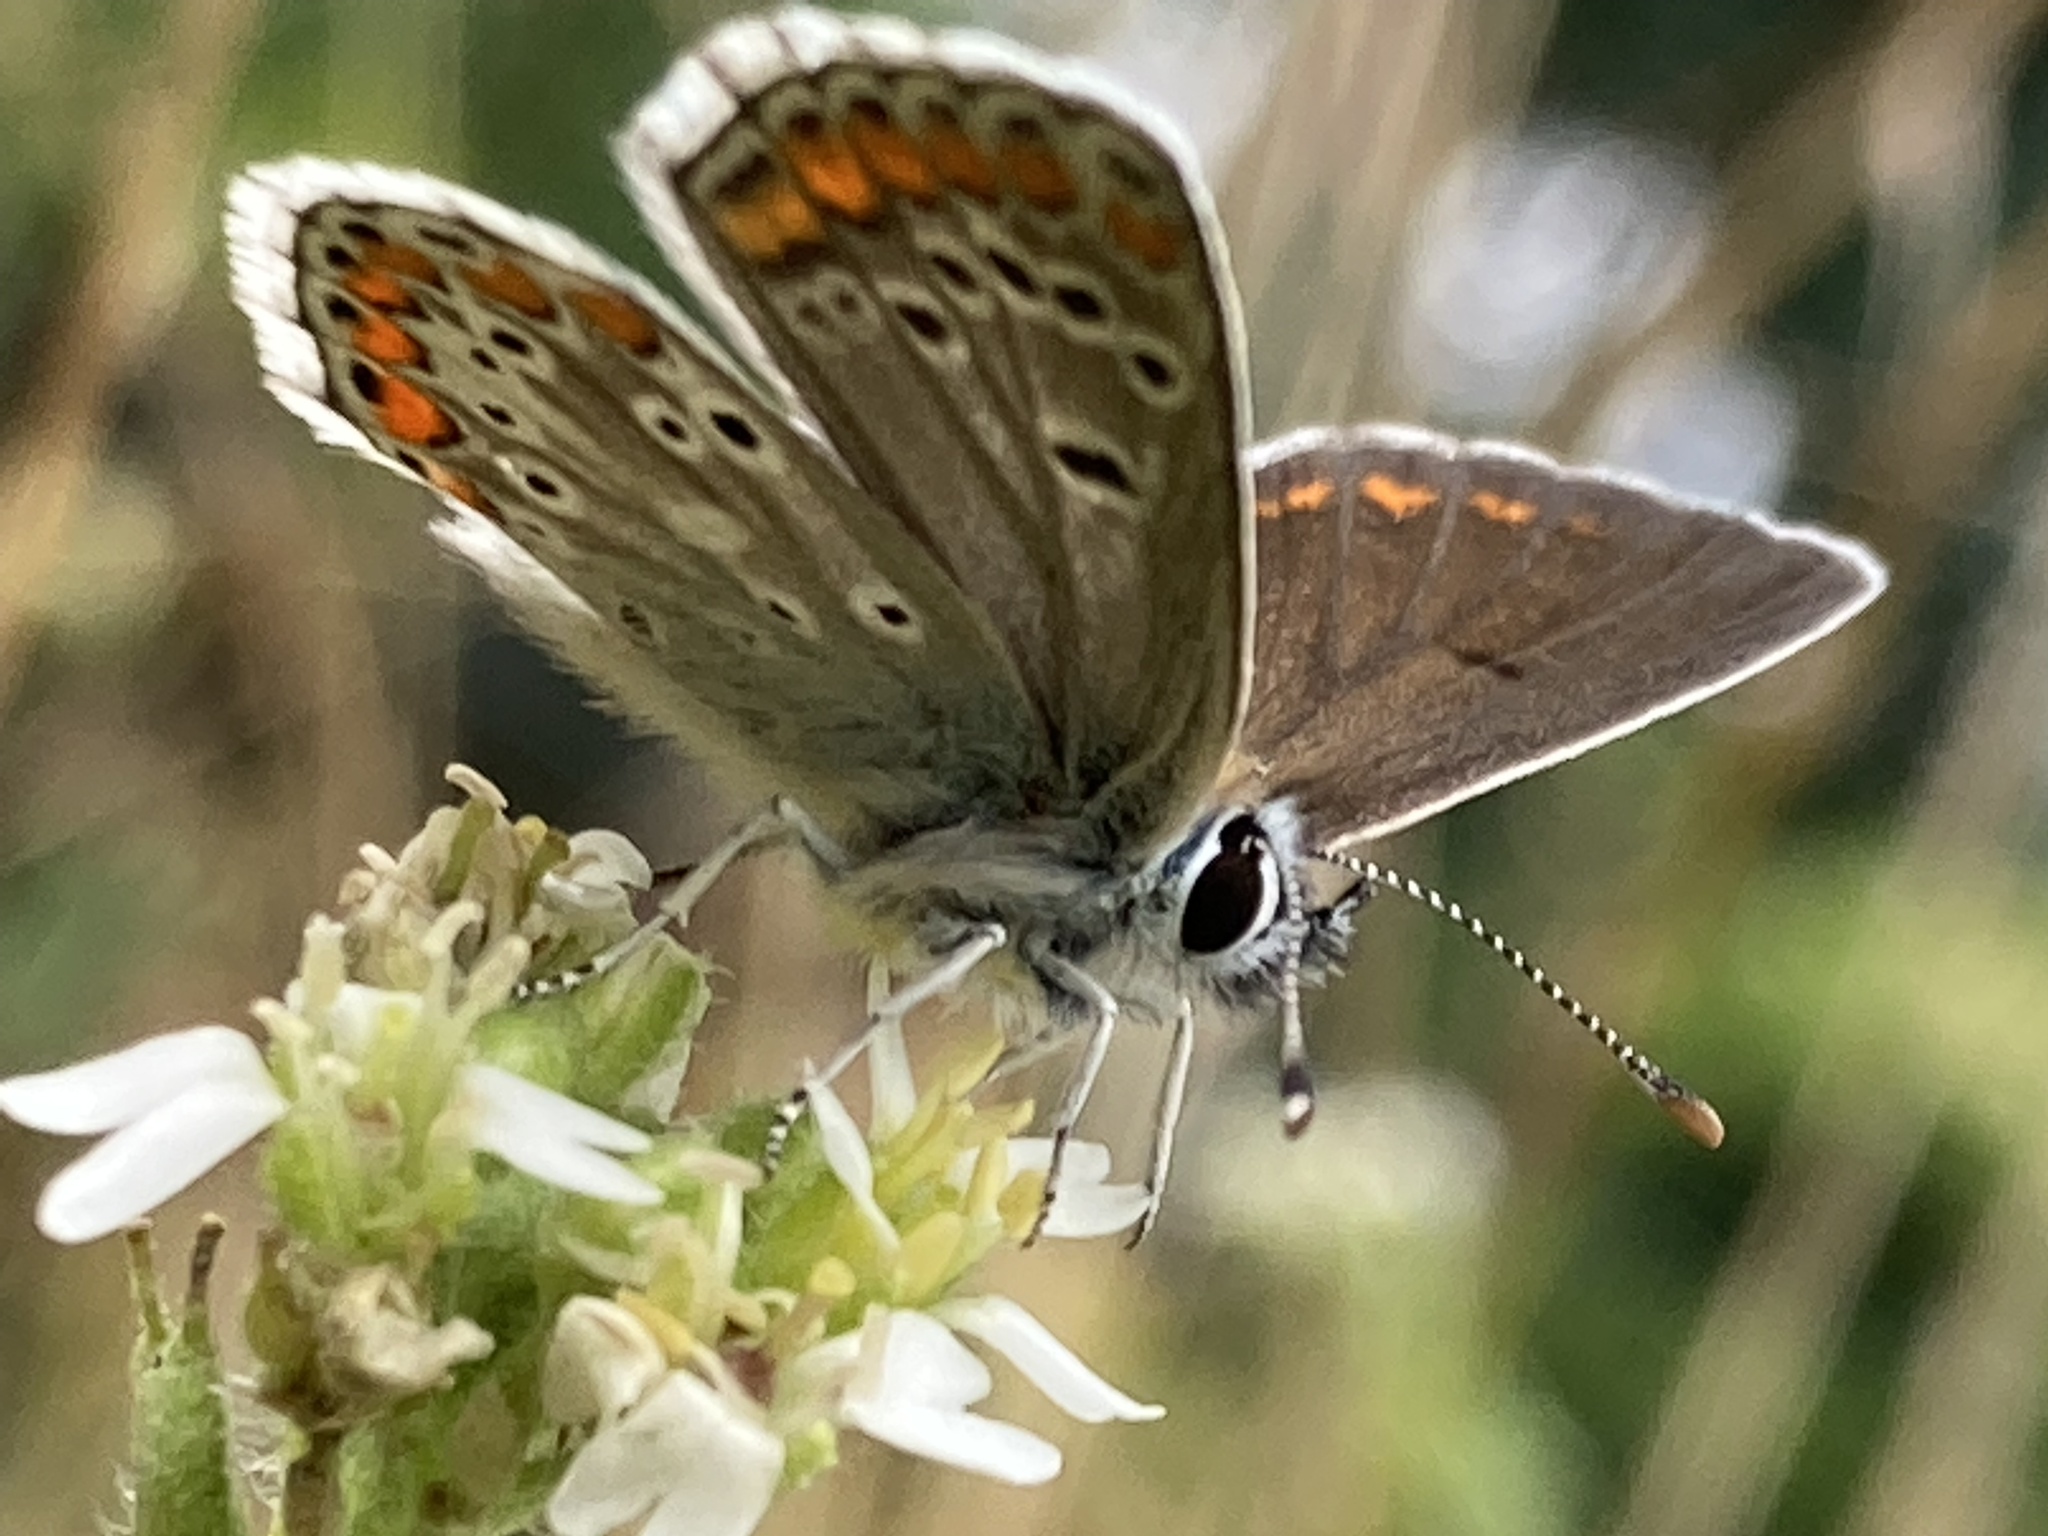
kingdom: Animalia
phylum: Arthropoda
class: Insecta
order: Lepidoptera
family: Lycaenidae
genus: Aricia
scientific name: Aricia agestis
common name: Brown argus
